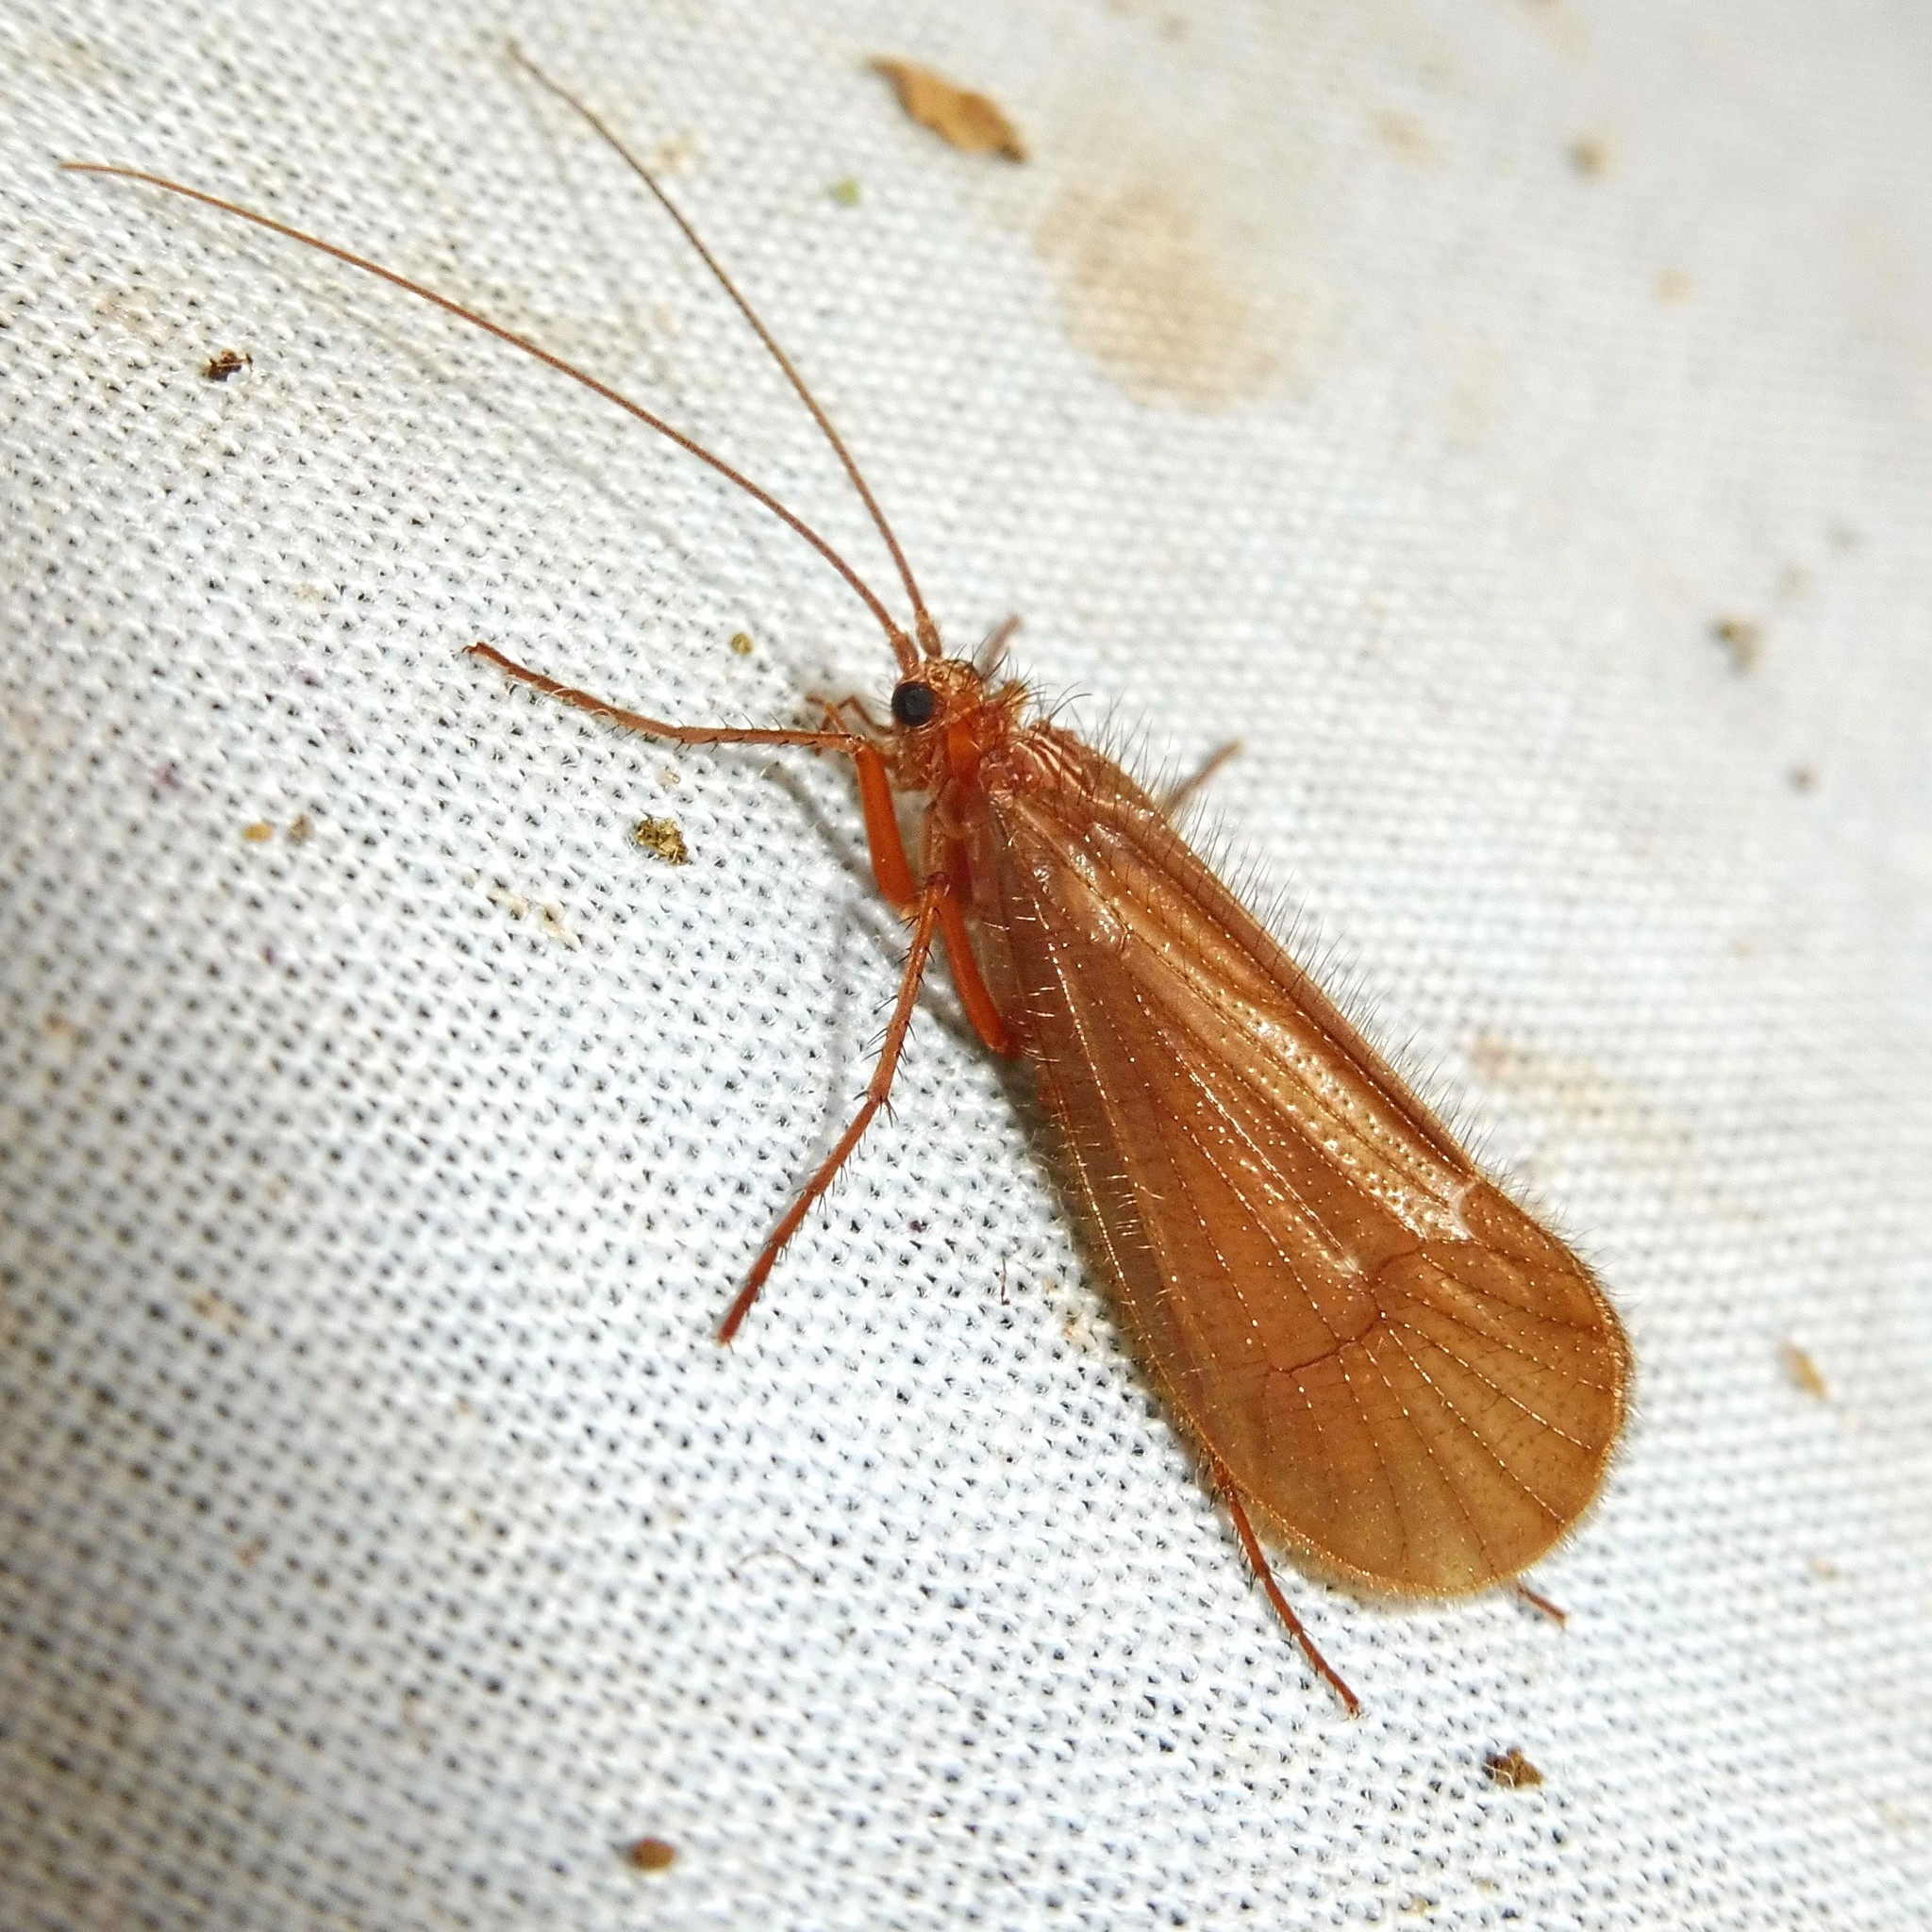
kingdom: Animalia
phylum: Arthropoda
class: Insecta
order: Trichoptera
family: Limnephilidae
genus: Chaetopteryx
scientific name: Chaetopteryx villosa
